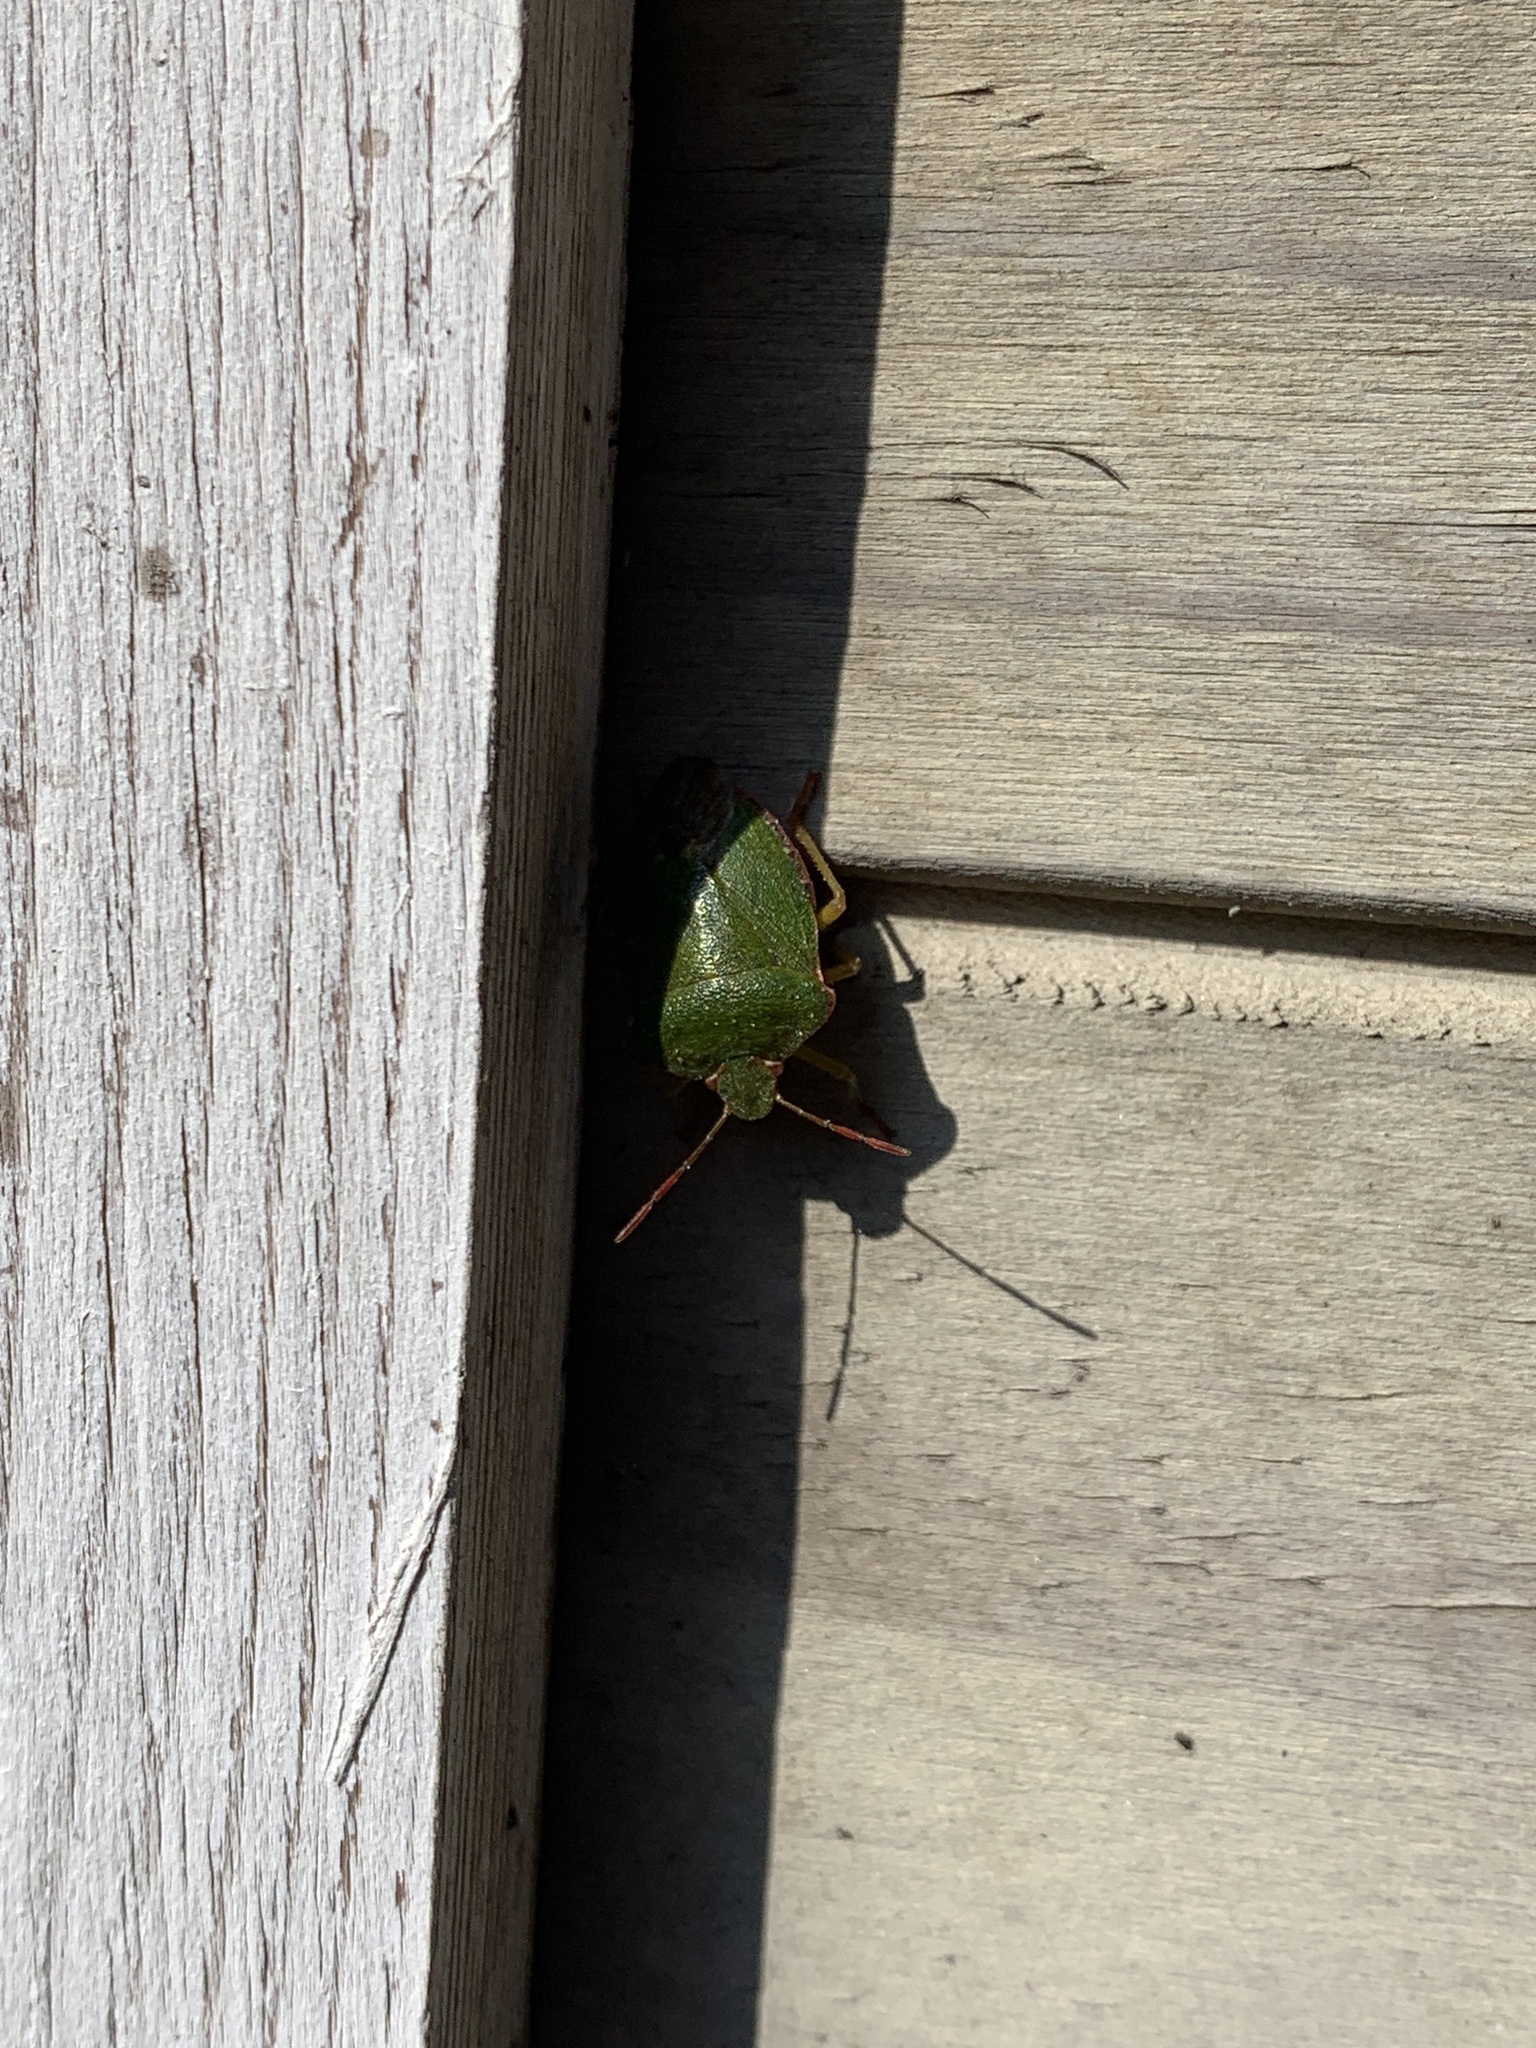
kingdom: Animalia
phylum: Arthropoda
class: Insecta
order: Hemiptera
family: Pentatomidae
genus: Palomena
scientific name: Palomena prasina
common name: Green shieldbug
